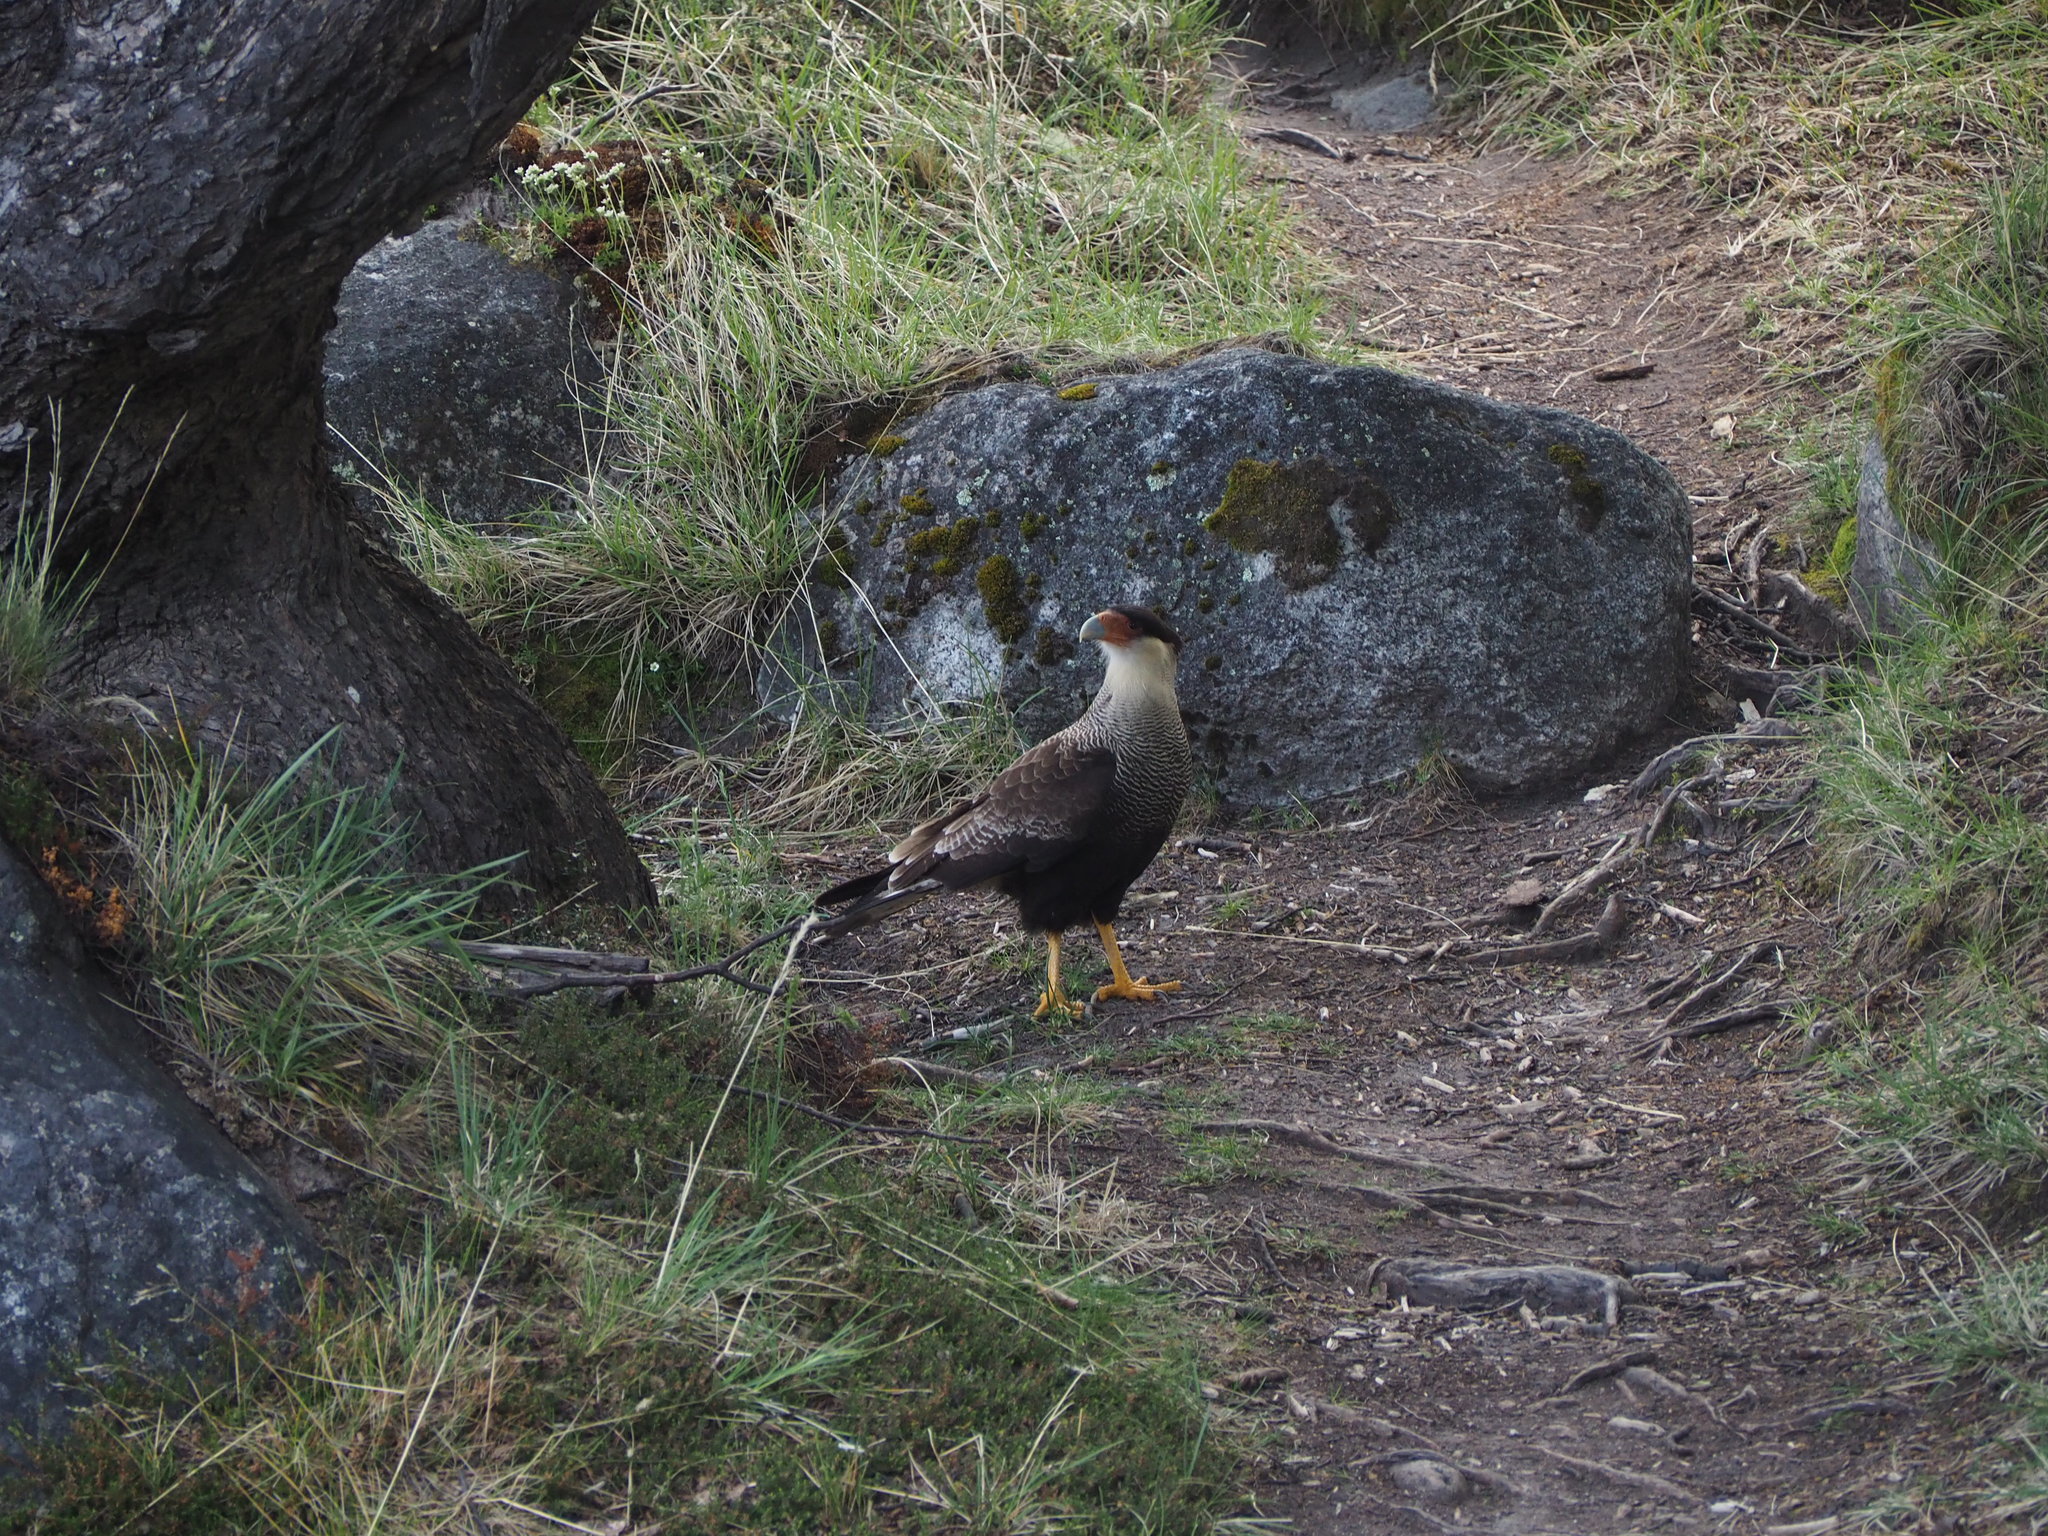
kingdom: Animalia
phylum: Chordata
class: Aves
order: Falconiformes
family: Falconidae
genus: Caracara
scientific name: Caracara plancus
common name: Southern caracara
